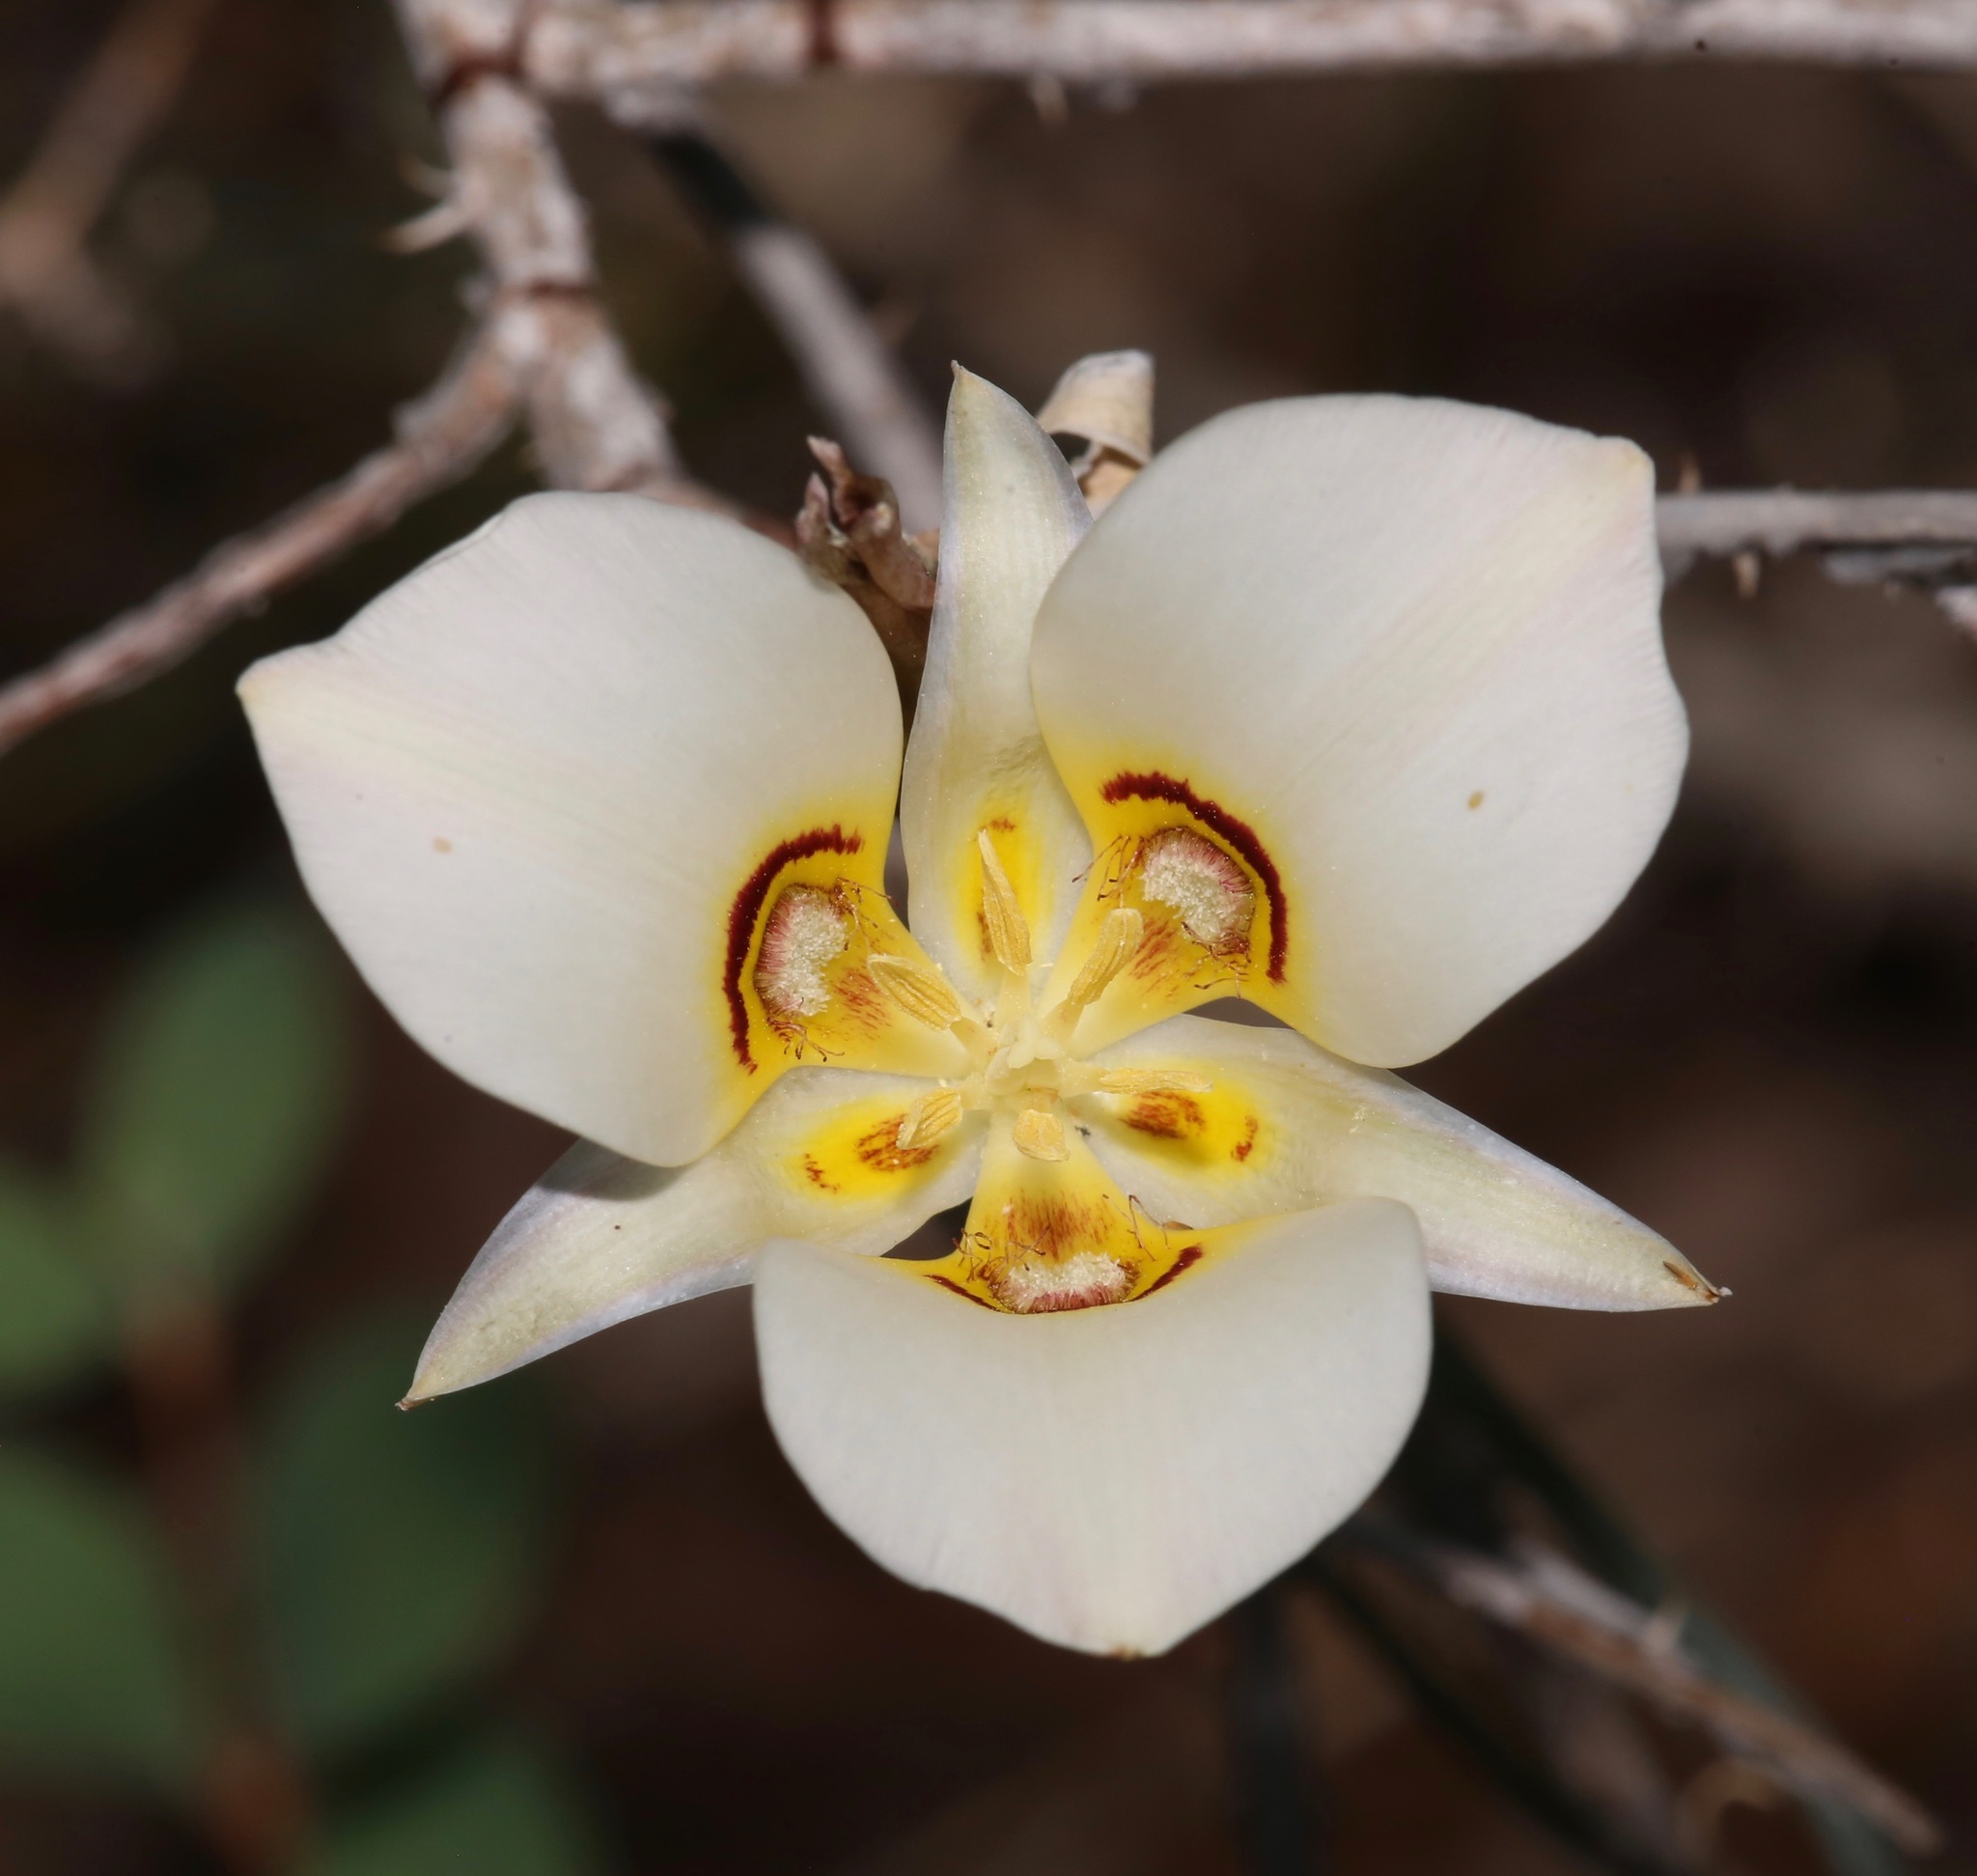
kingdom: Plantae
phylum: Tracheophyta
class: Liliopsida
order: Liliales
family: Liliaceae
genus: Calochortus
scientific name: Calochortus nuttallii
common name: Sego-lily
